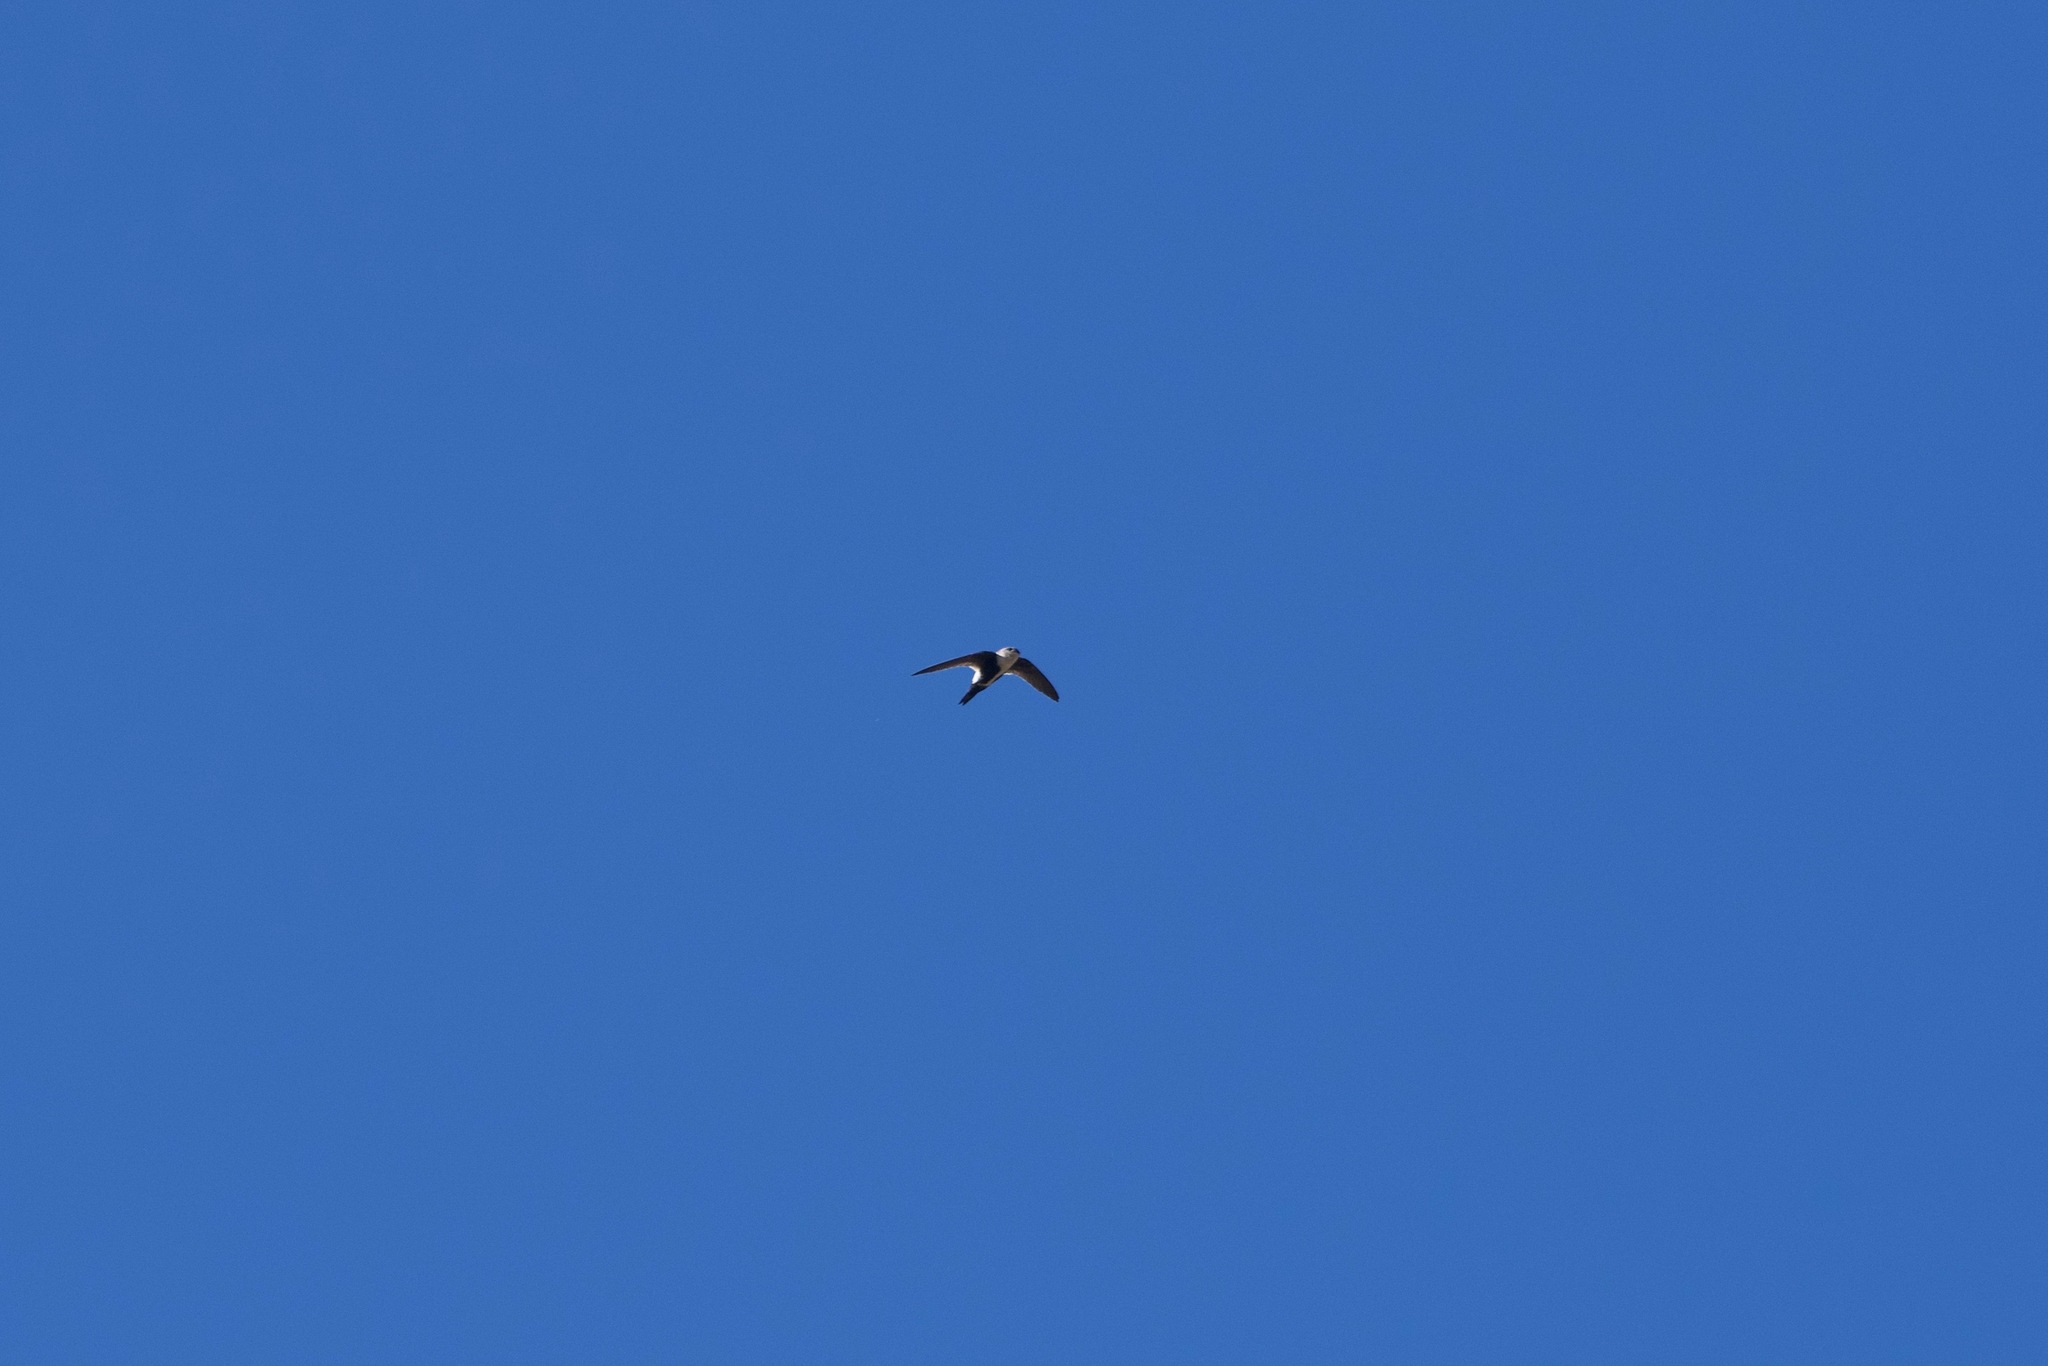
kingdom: Animalia
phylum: Chordata
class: Aves
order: Apodiformes
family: Apodidae
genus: Aeronautes
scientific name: Aeronautes saxatalis
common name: White-throated swift
